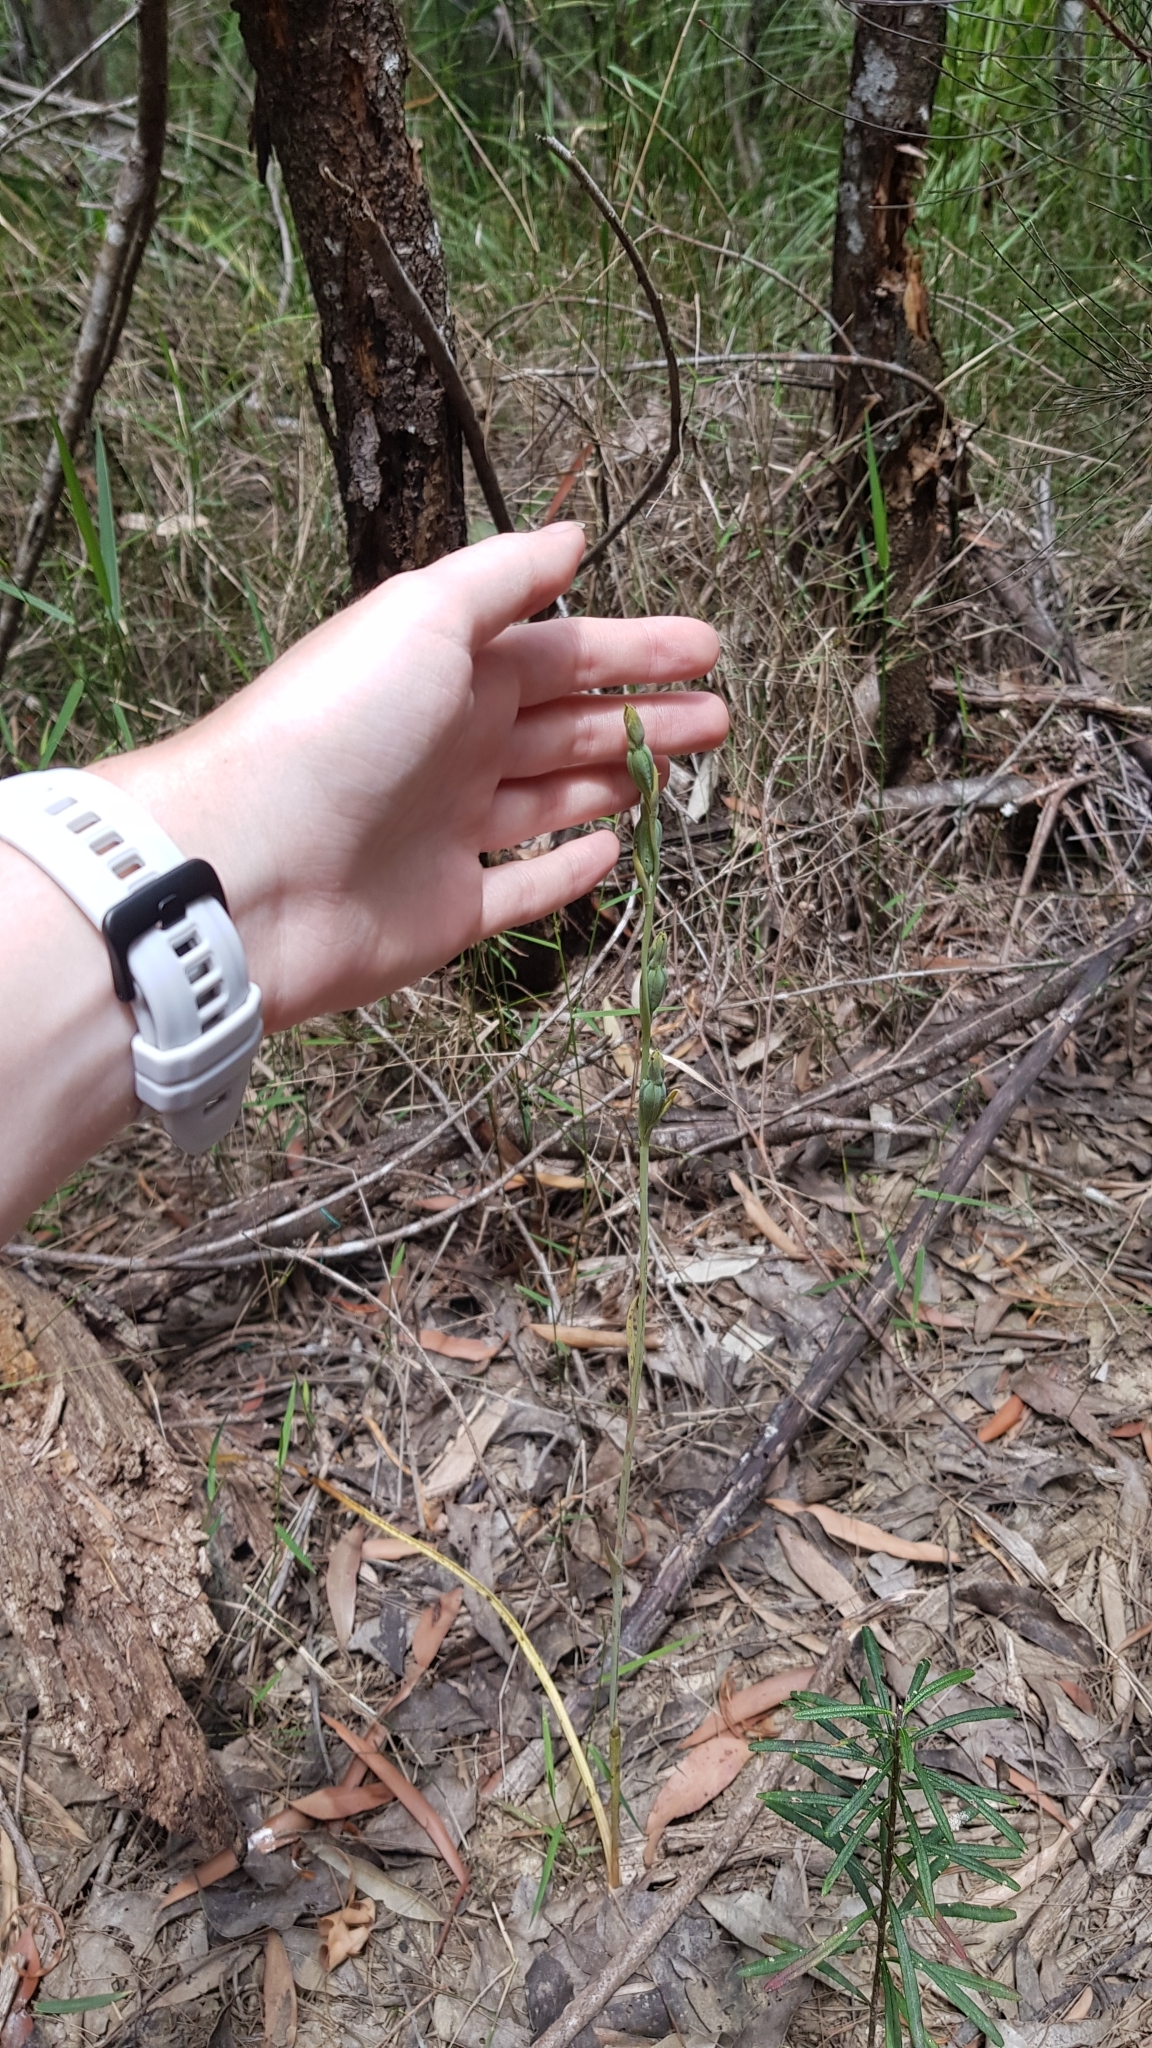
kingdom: Plantae
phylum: Tracheophyta
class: Liliopsida
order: Asparagales
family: Orchidaceae
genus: Calochilus
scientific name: Calochilus
